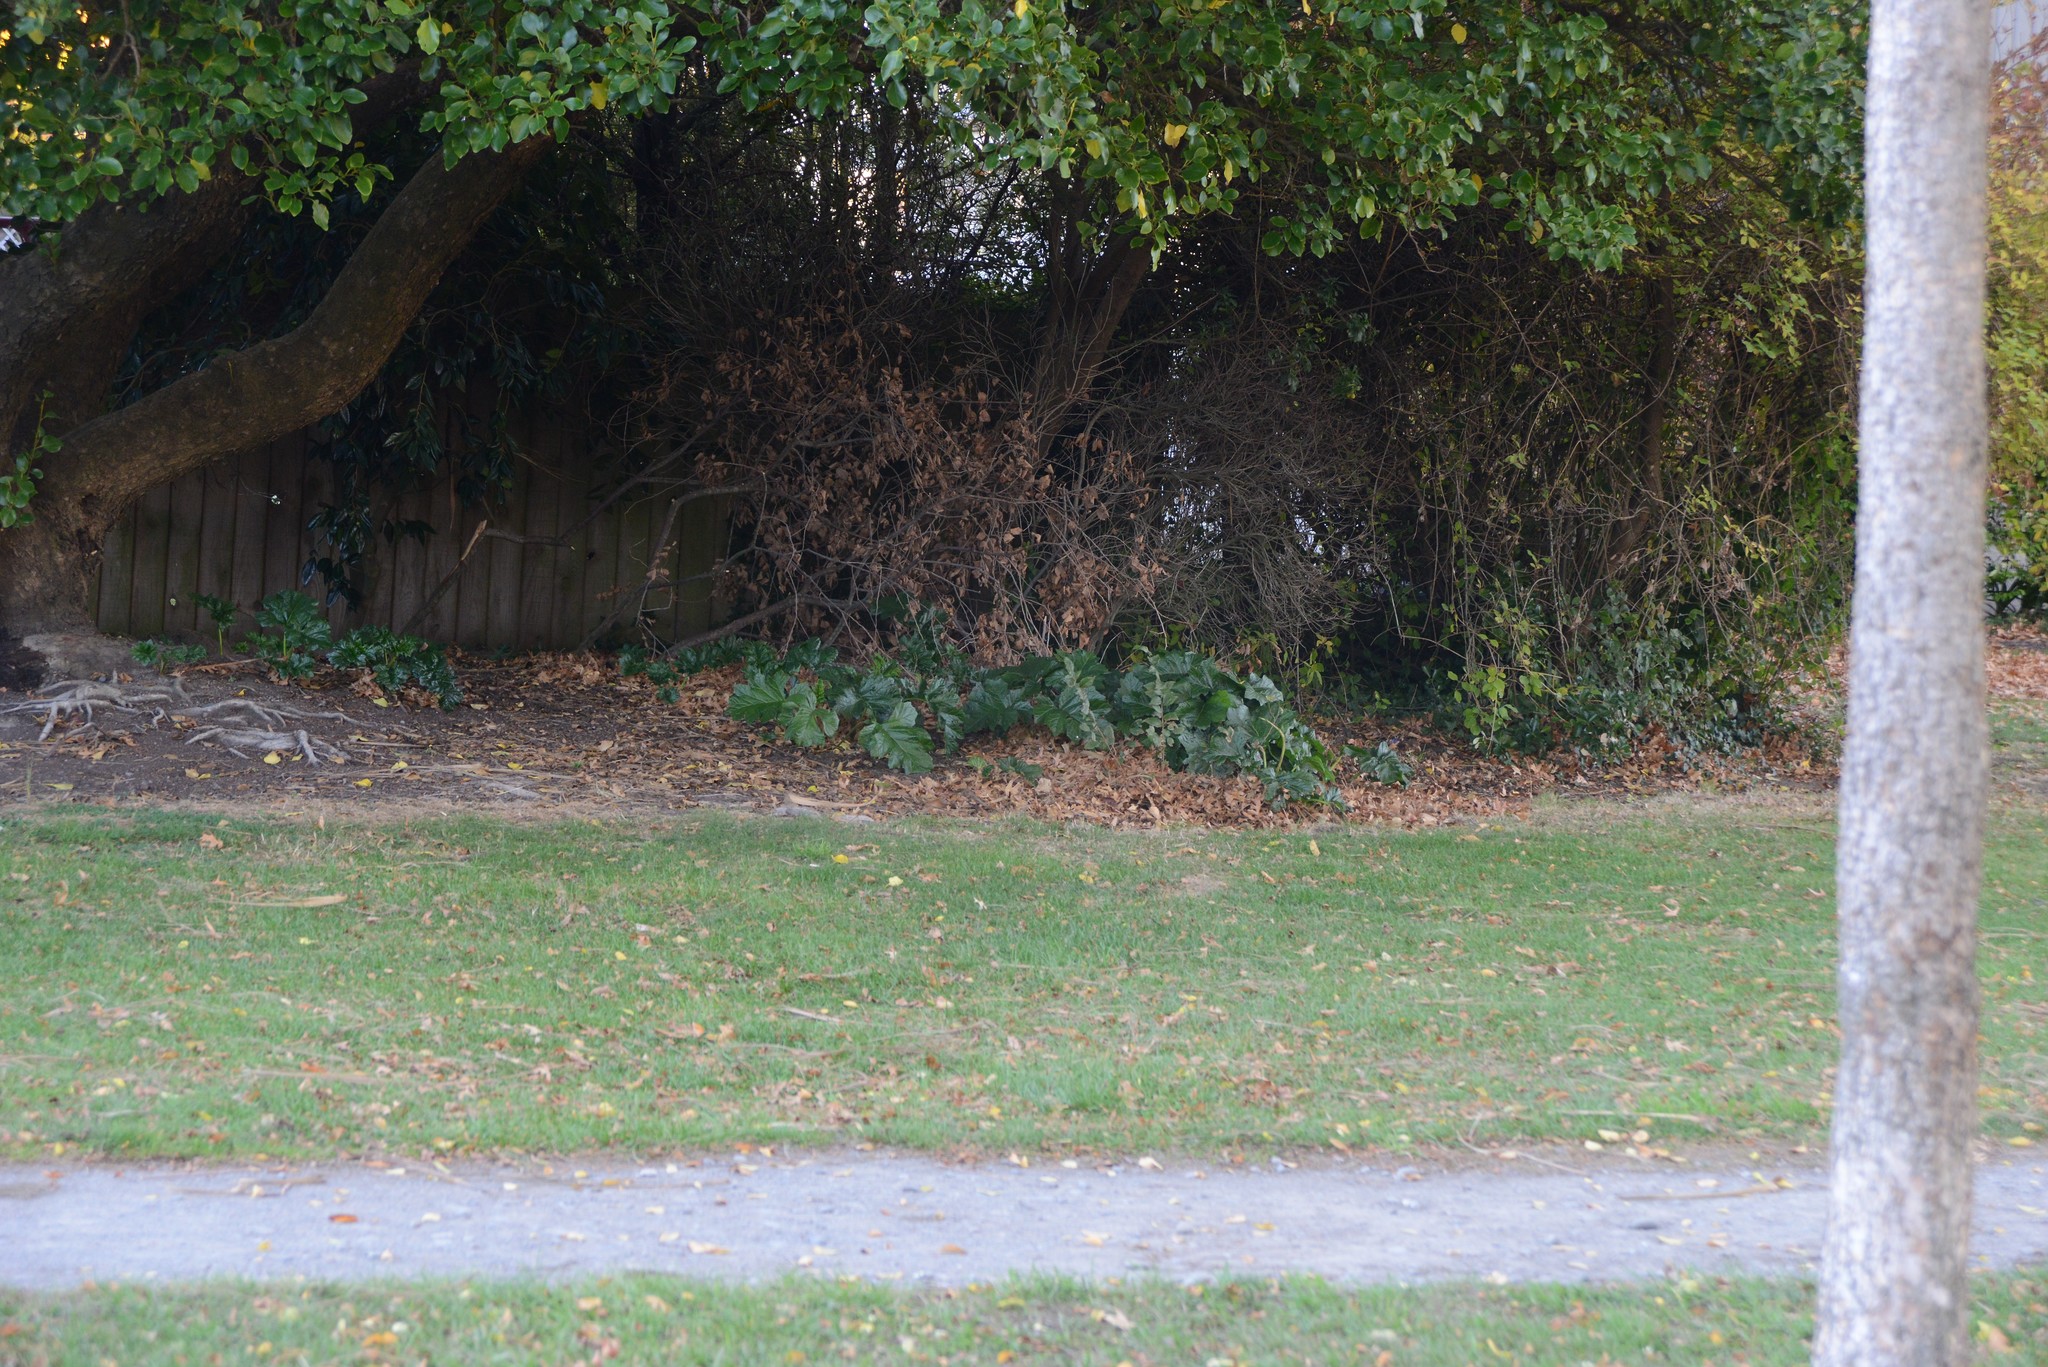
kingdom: Plantae
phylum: Tracheophyta
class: Magnoliopsida
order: Lamiales
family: Acanthaceae
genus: Acanthus
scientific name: Acanthus mollis
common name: Bear's-breech
